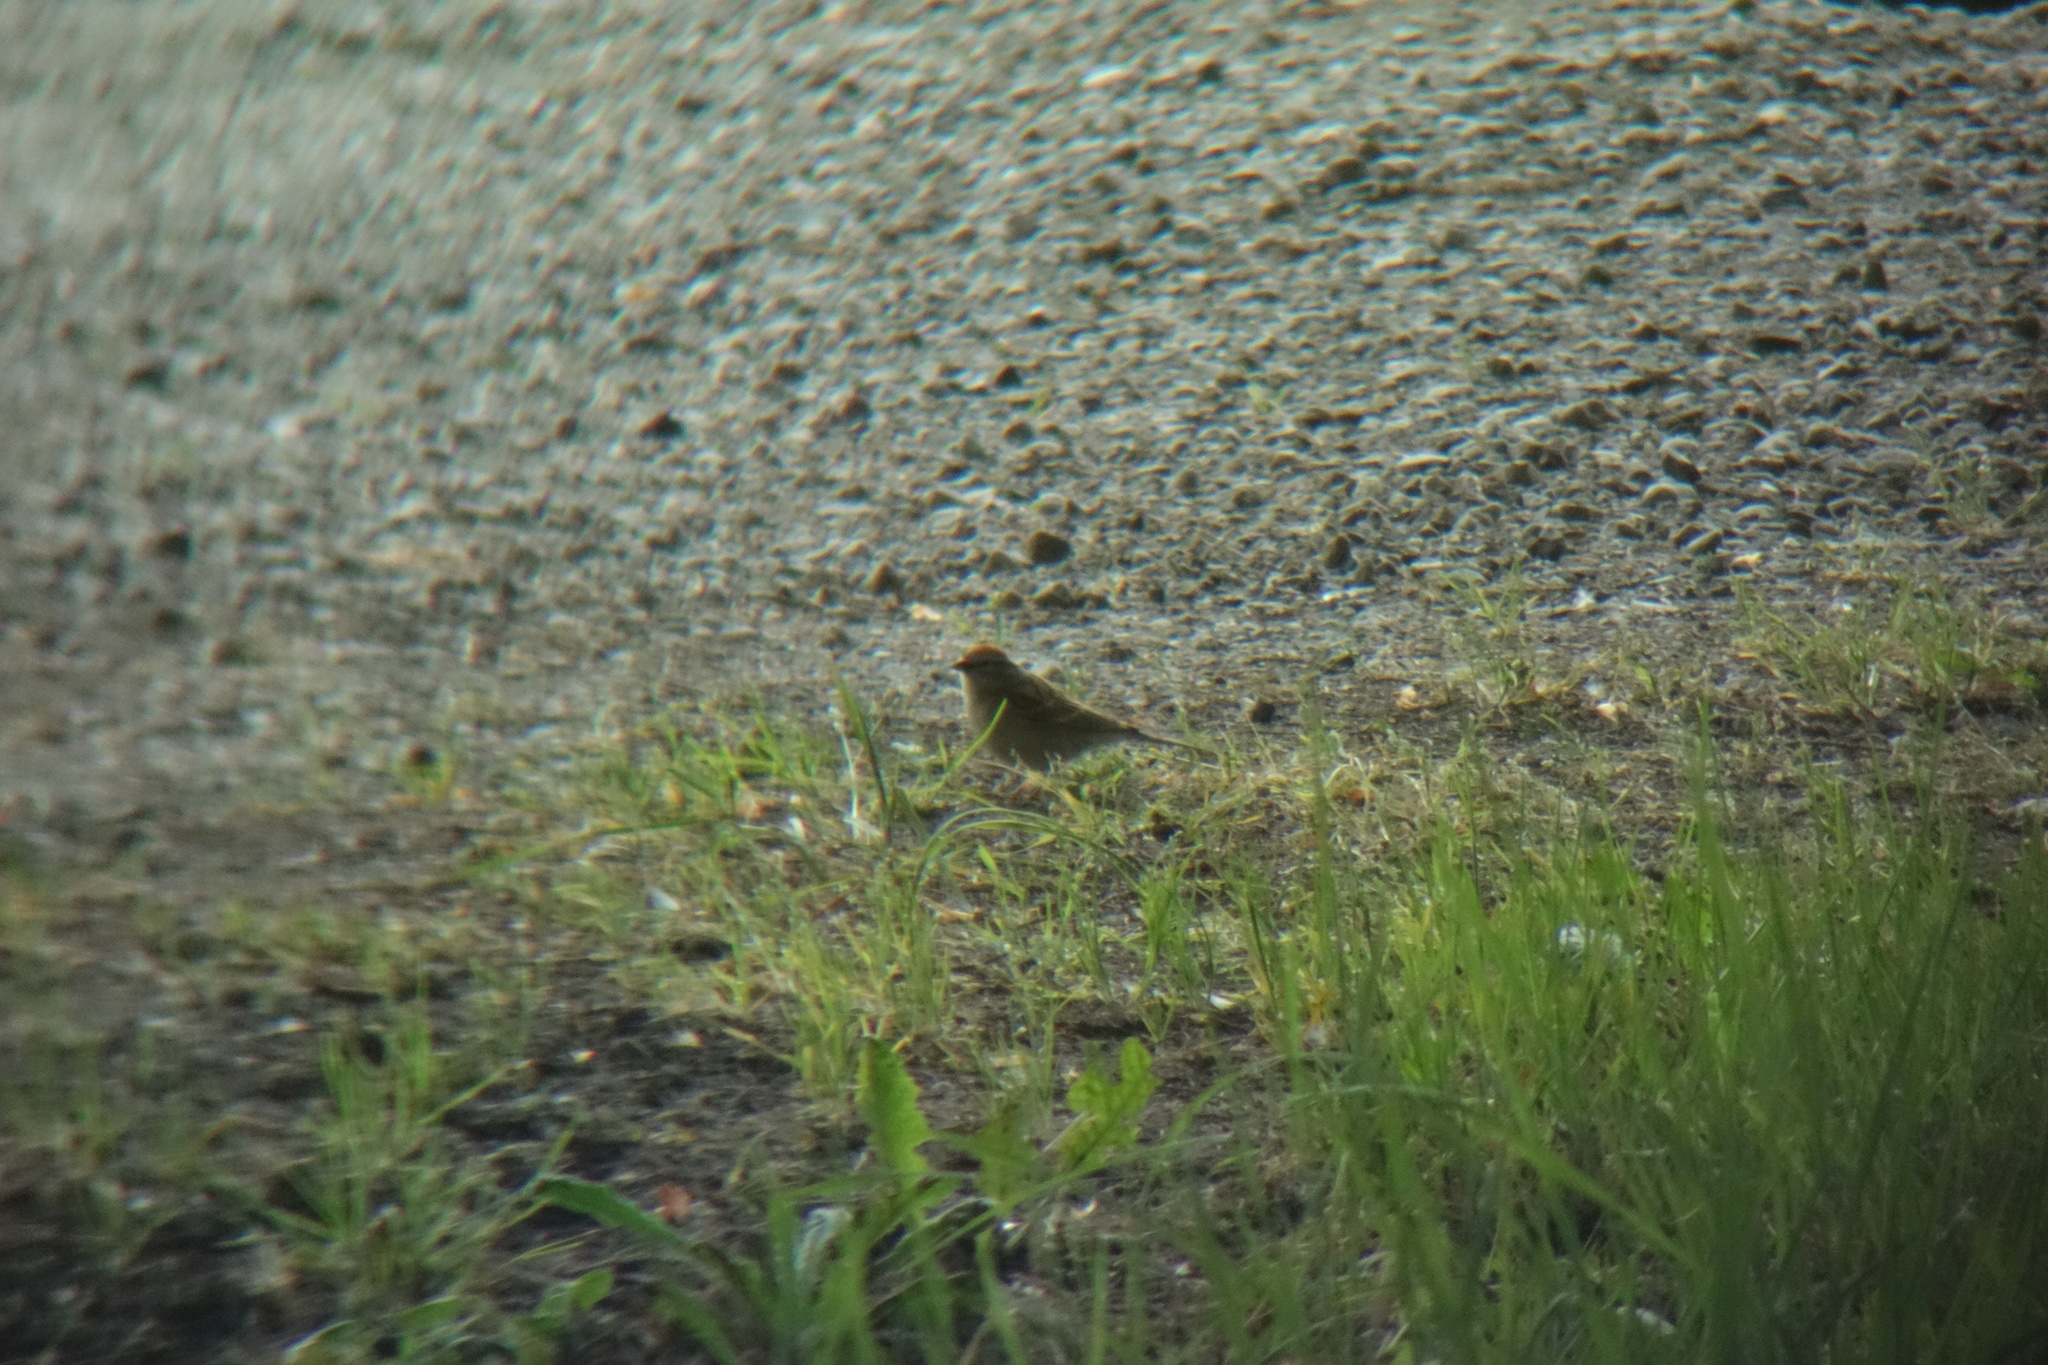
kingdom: Animalia
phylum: Chordata
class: Aves
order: Passeriformes
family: Passerellidae
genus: Spizella
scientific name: Spizella passerina
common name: Chipping sparrow
